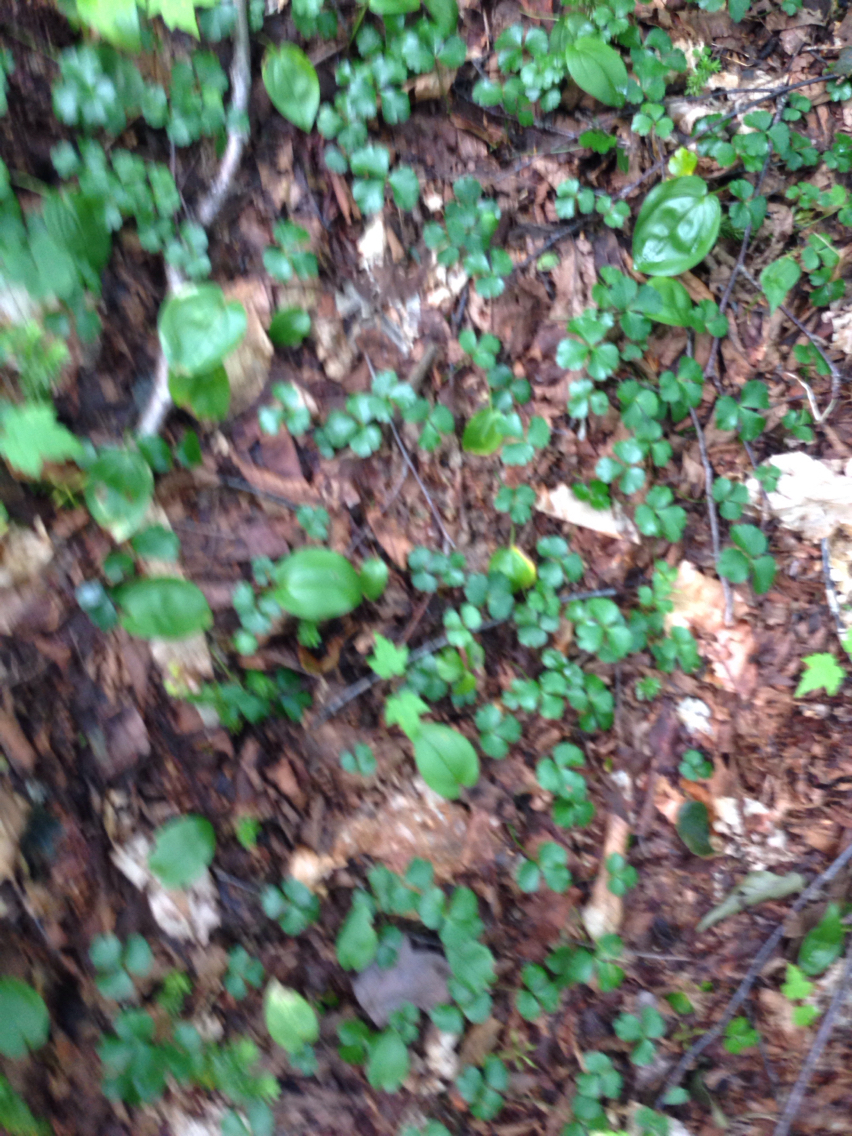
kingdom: Plantae
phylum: Tracheophyta
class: Magnoliopsida
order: Ranunculales
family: Ranunculaceae
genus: Coptis
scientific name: Coptis trifolia
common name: Canker-root
